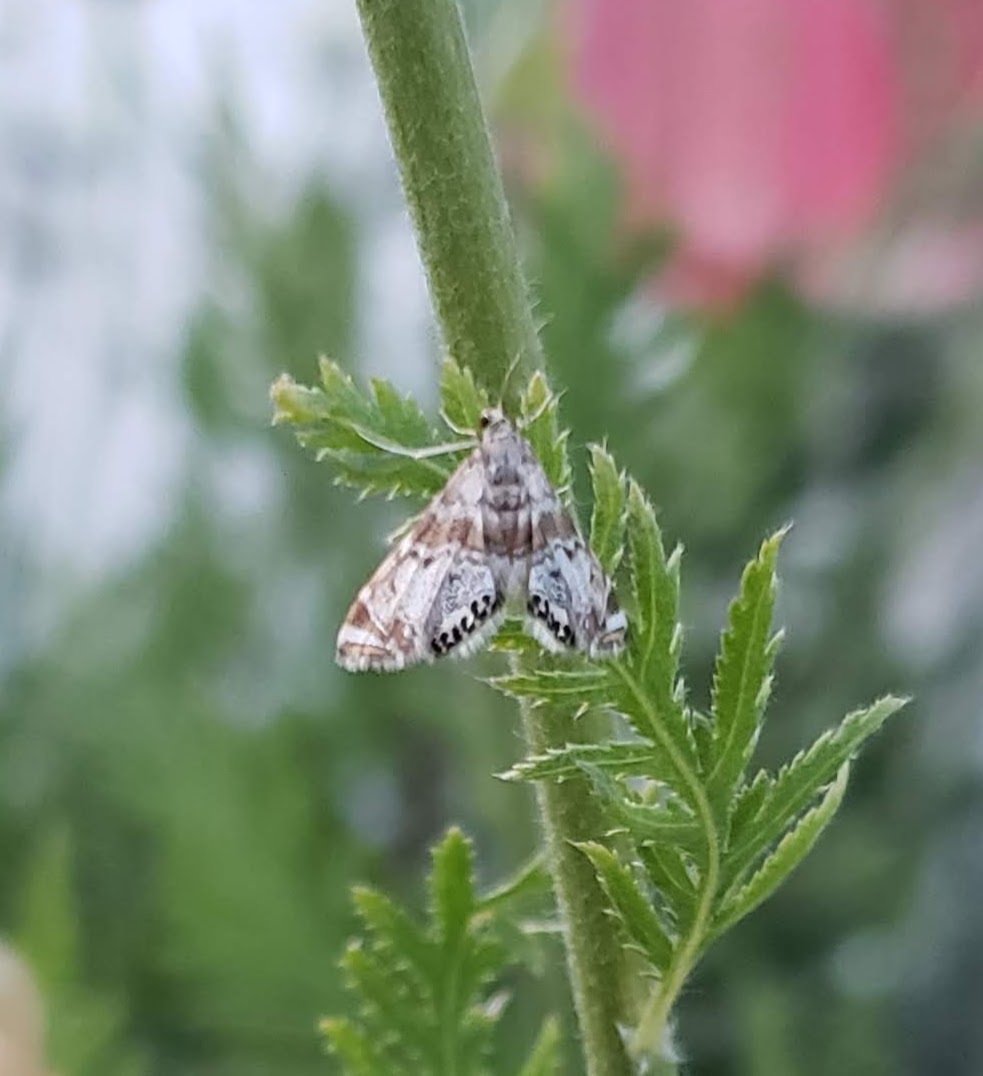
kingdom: Animalia
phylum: Arthropoda
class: Insecta
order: Lepidoptera
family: Crambidae
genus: Petrophila
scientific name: Petrophila confusalis
